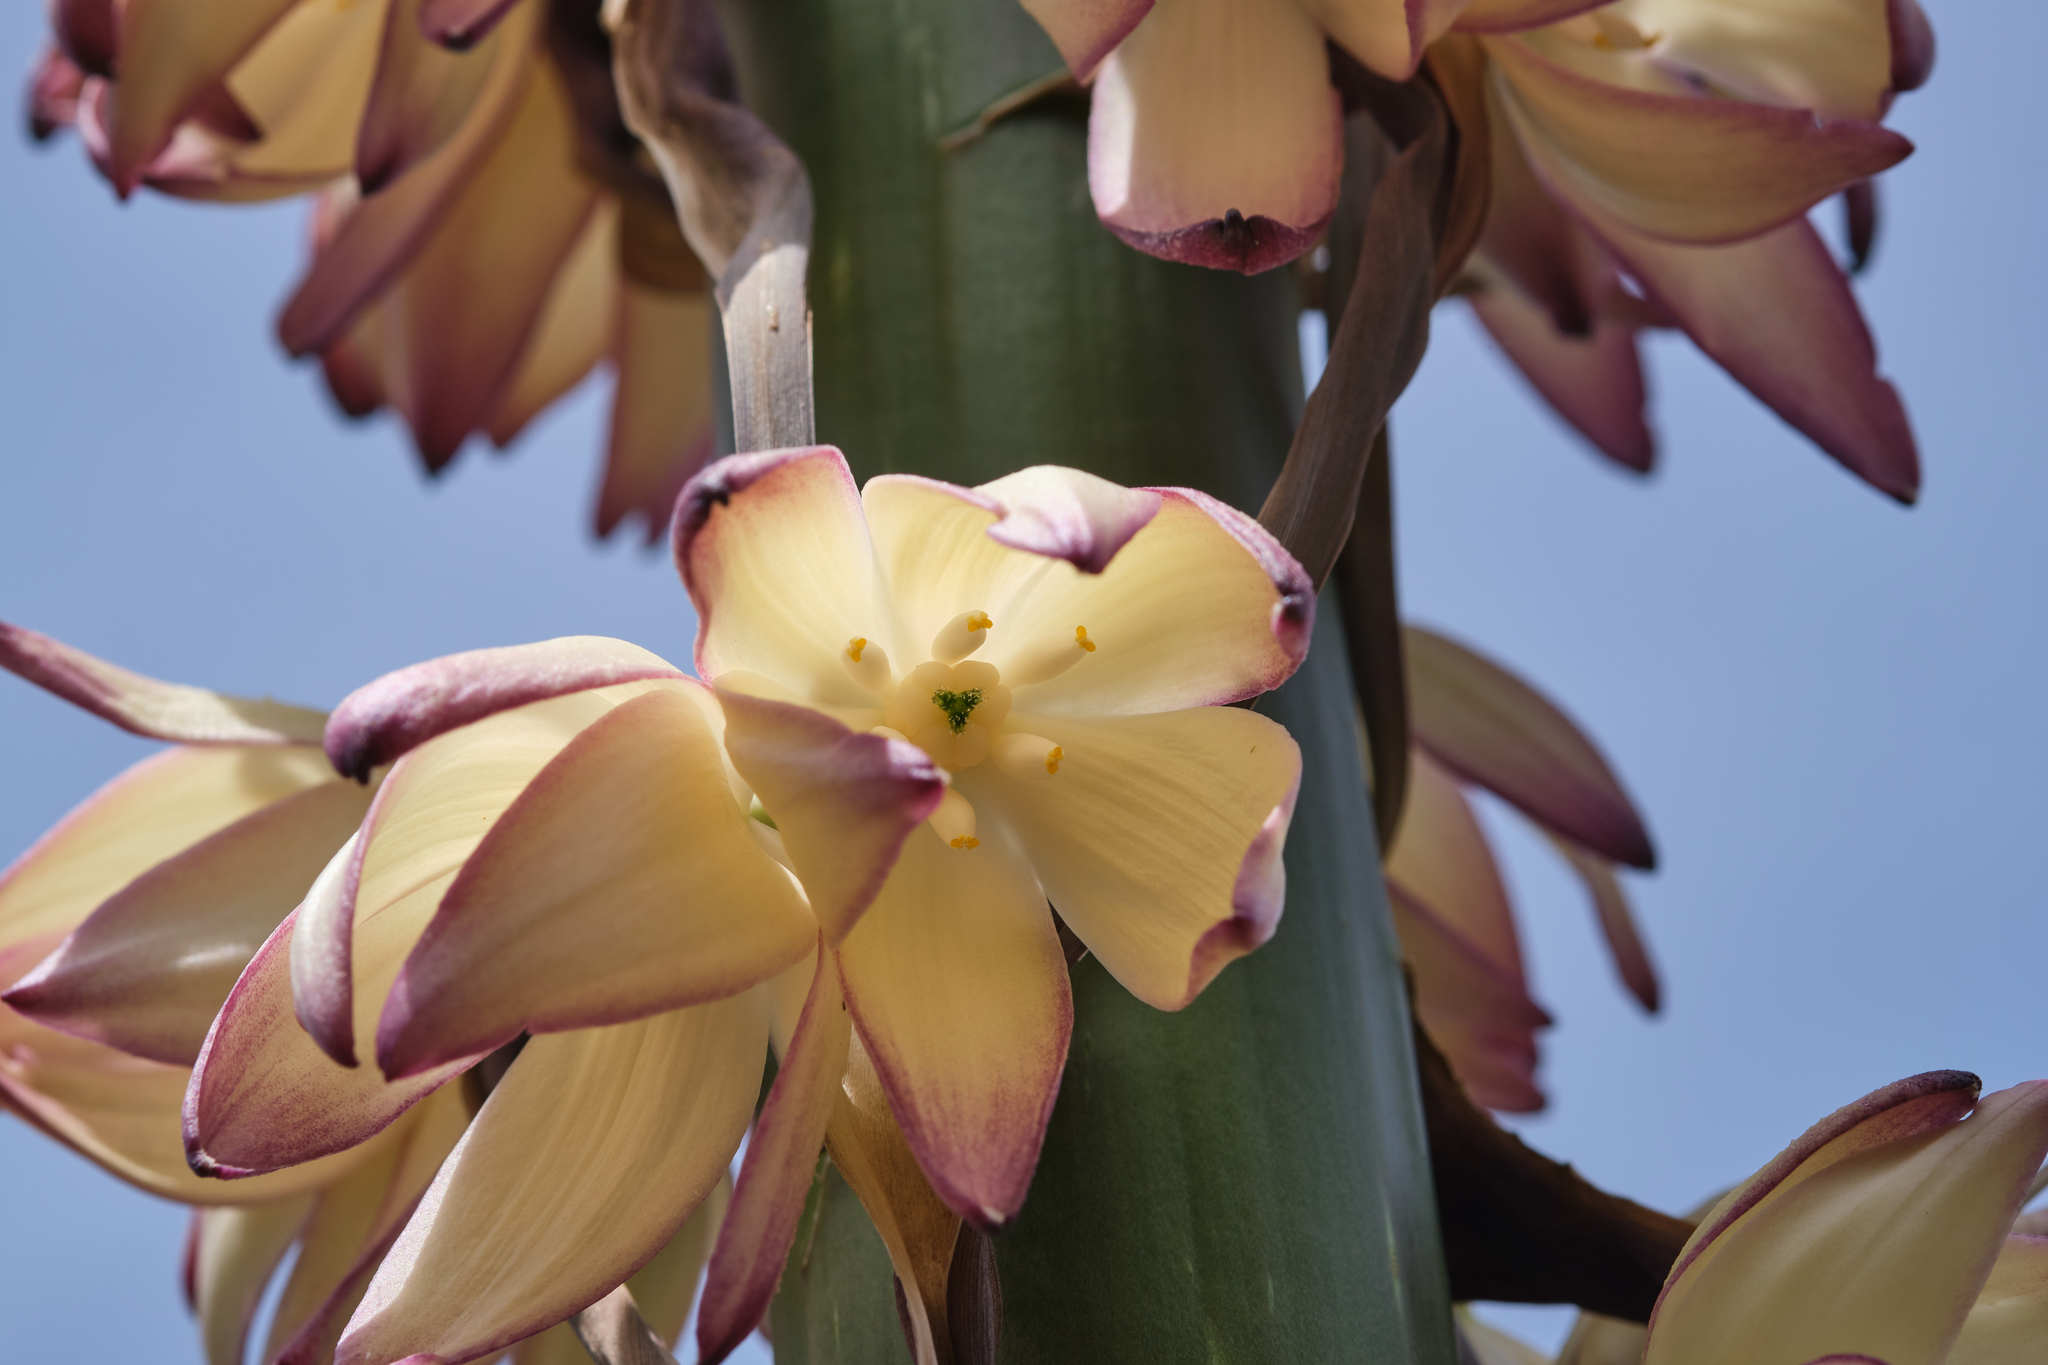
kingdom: Plantae
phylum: Tracheophyta
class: Liliopsida
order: Asparagales
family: Asparagaceae
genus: Hesperoyucca
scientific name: Hesperoyucca whipplei
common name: Our lord's-candle
